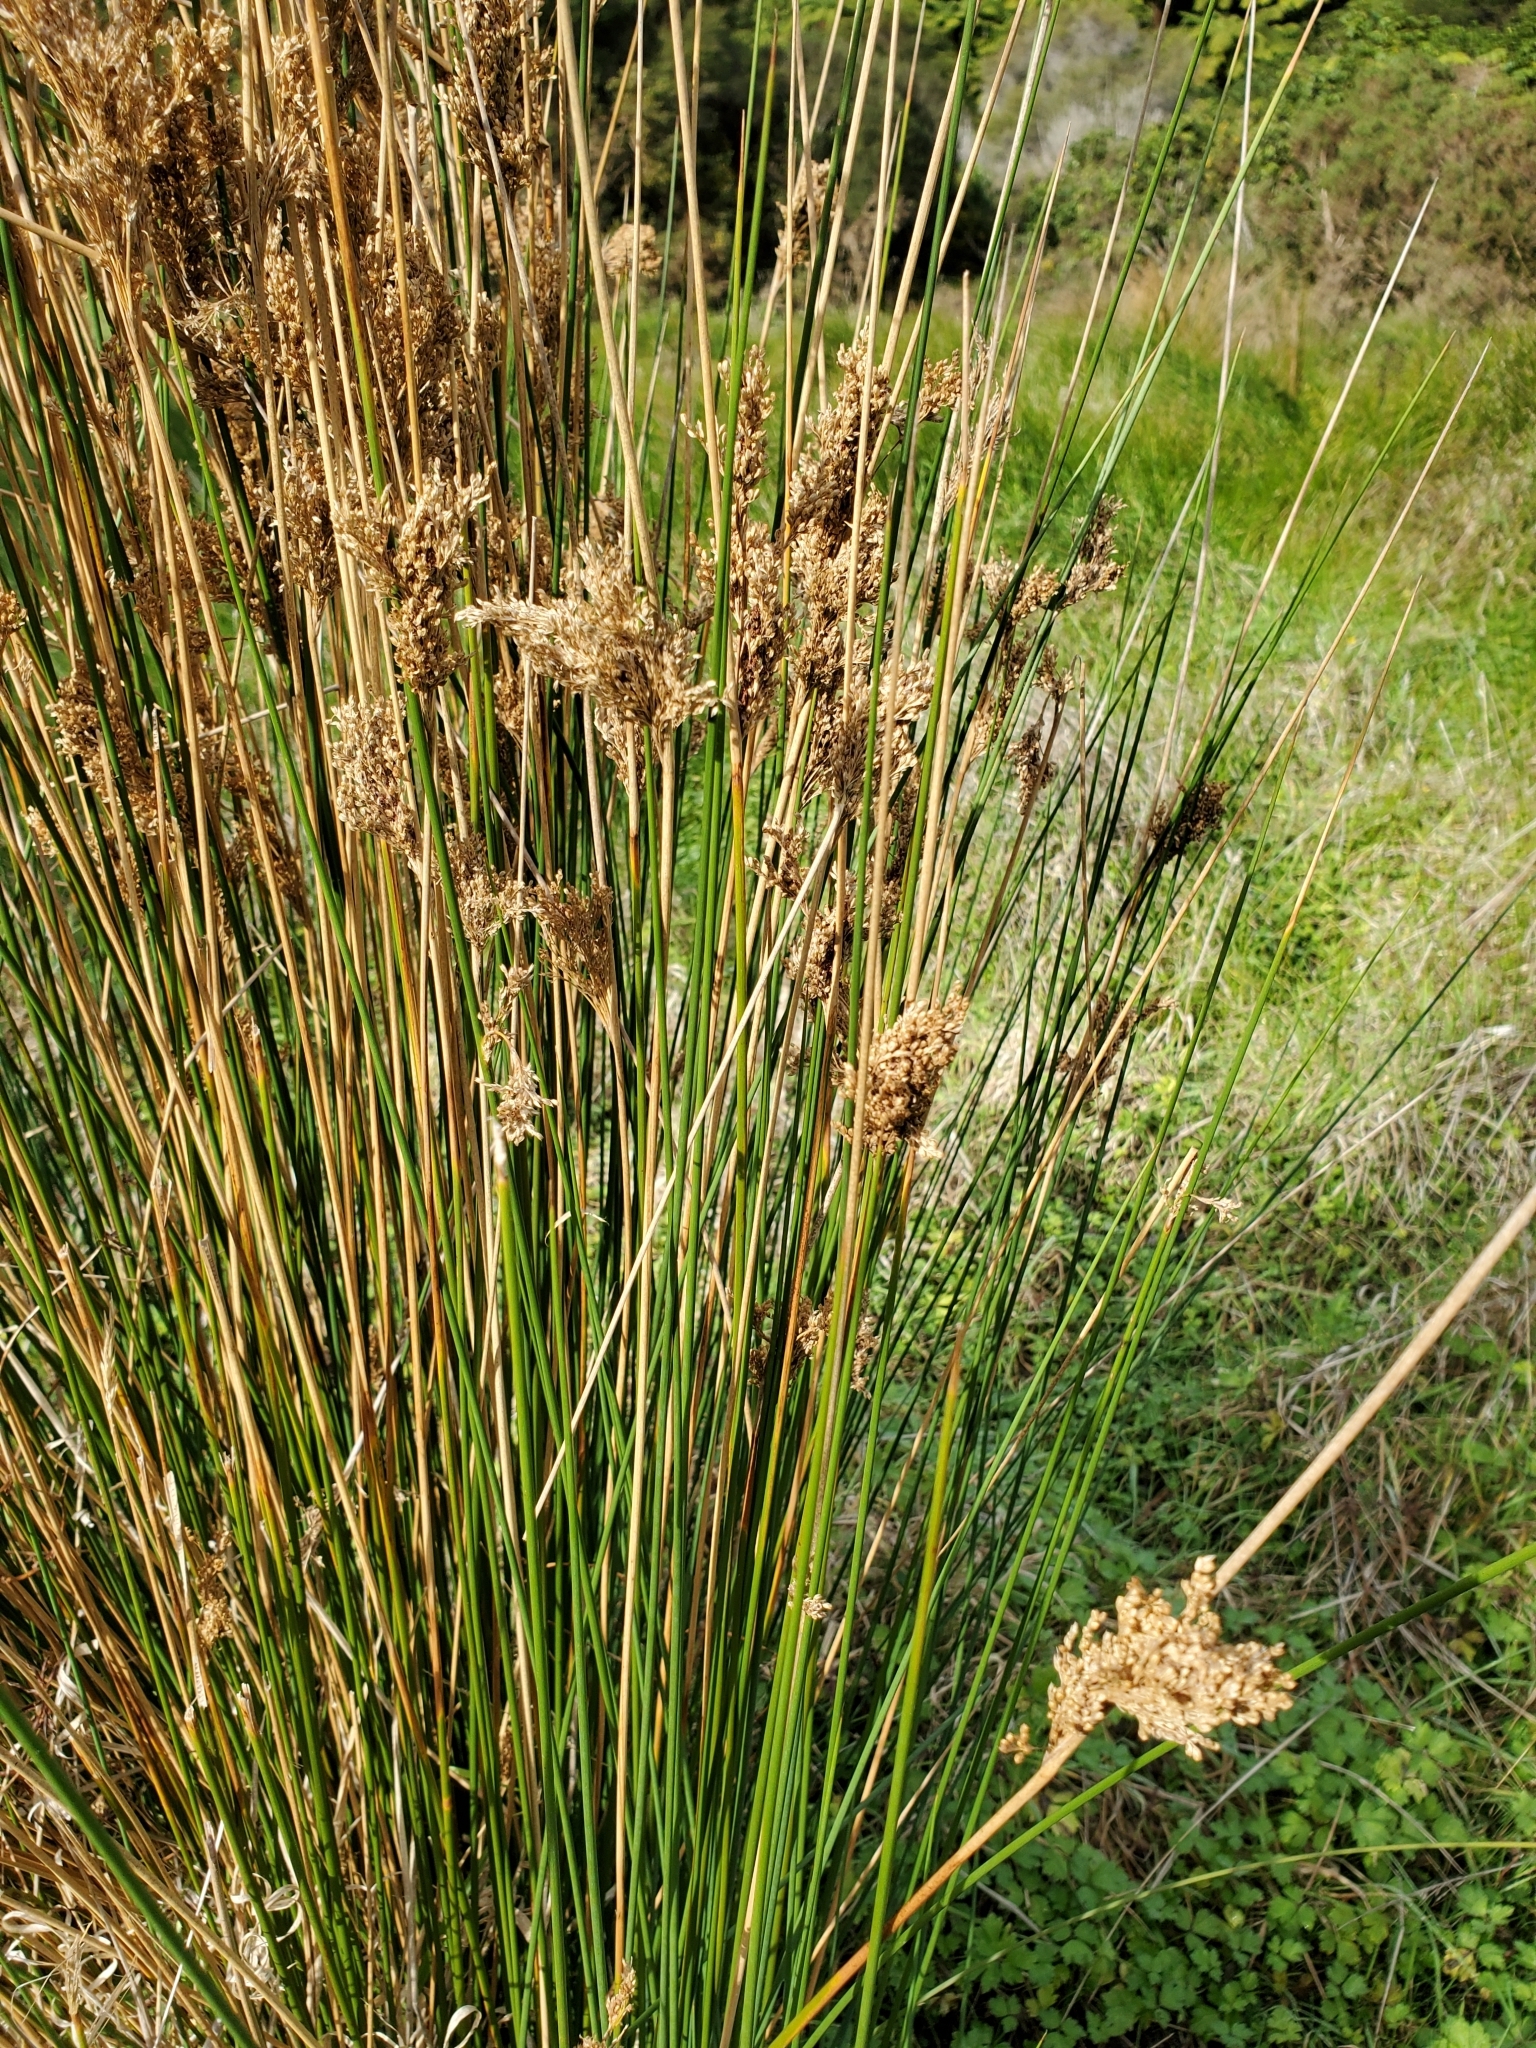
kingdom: Plantae
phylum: Tracheophyta
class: Liliopsida
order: Poales
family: Juncaceae
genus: Juncus
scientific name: Juncus pallidus
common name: Great soft-rush
